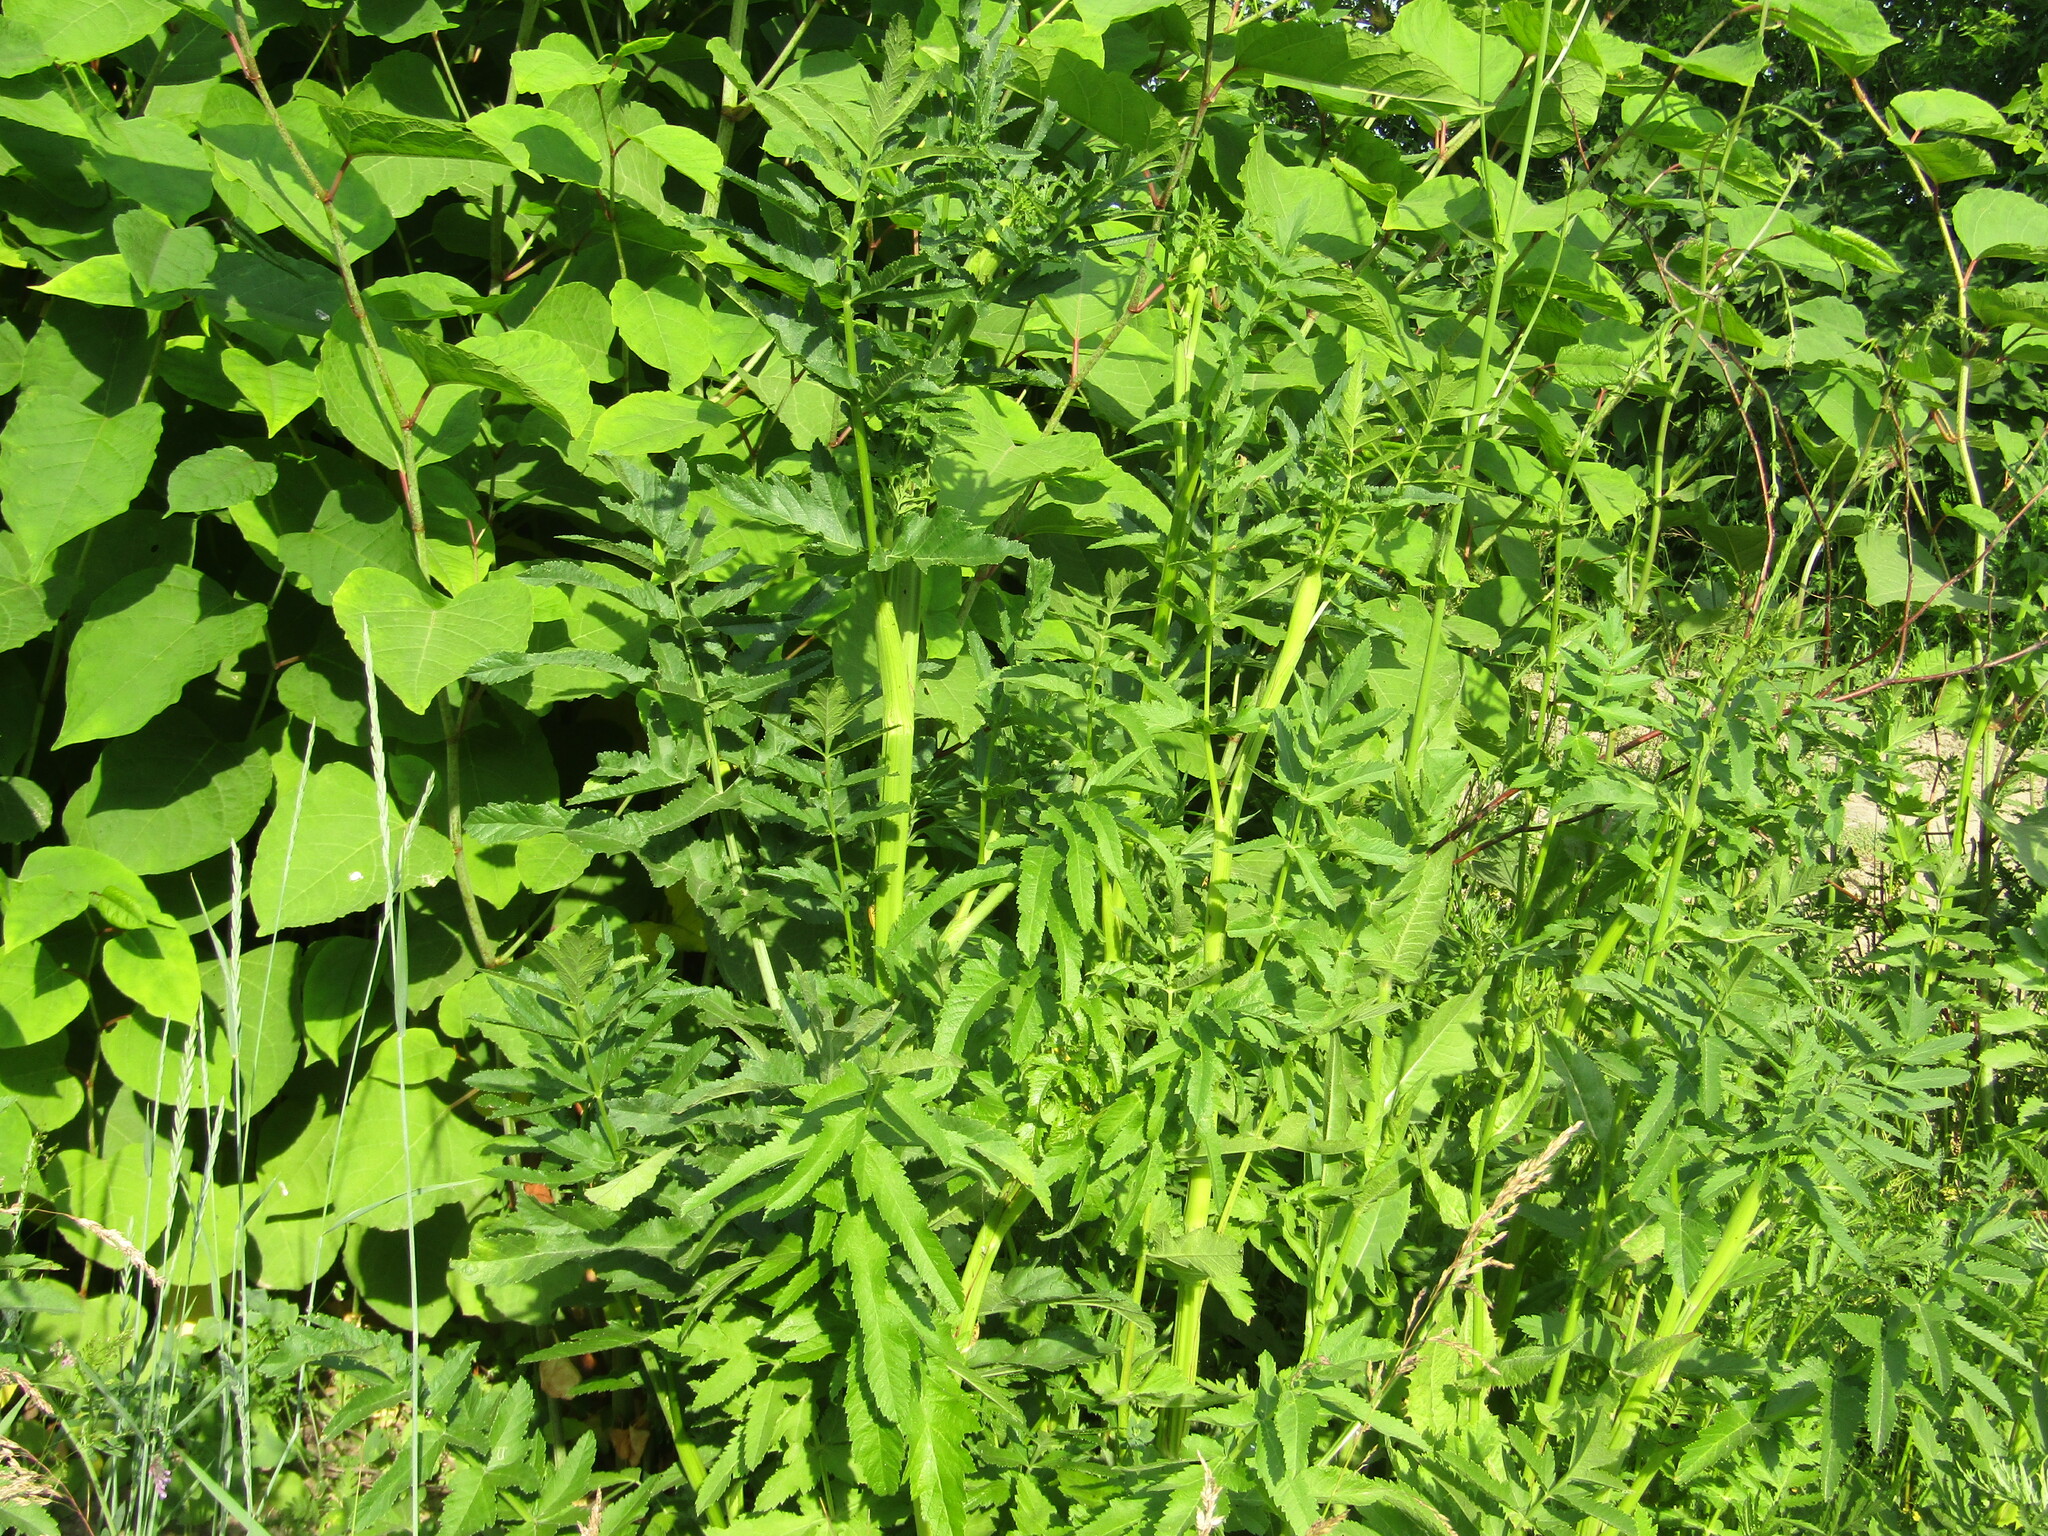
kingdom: Plantae
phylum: Tracheophyta
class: Magnoliopsida
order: Apiales
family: Apiaceae
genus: Pastinaca
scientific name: Pastinaca sativa
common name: Wild parsnip
